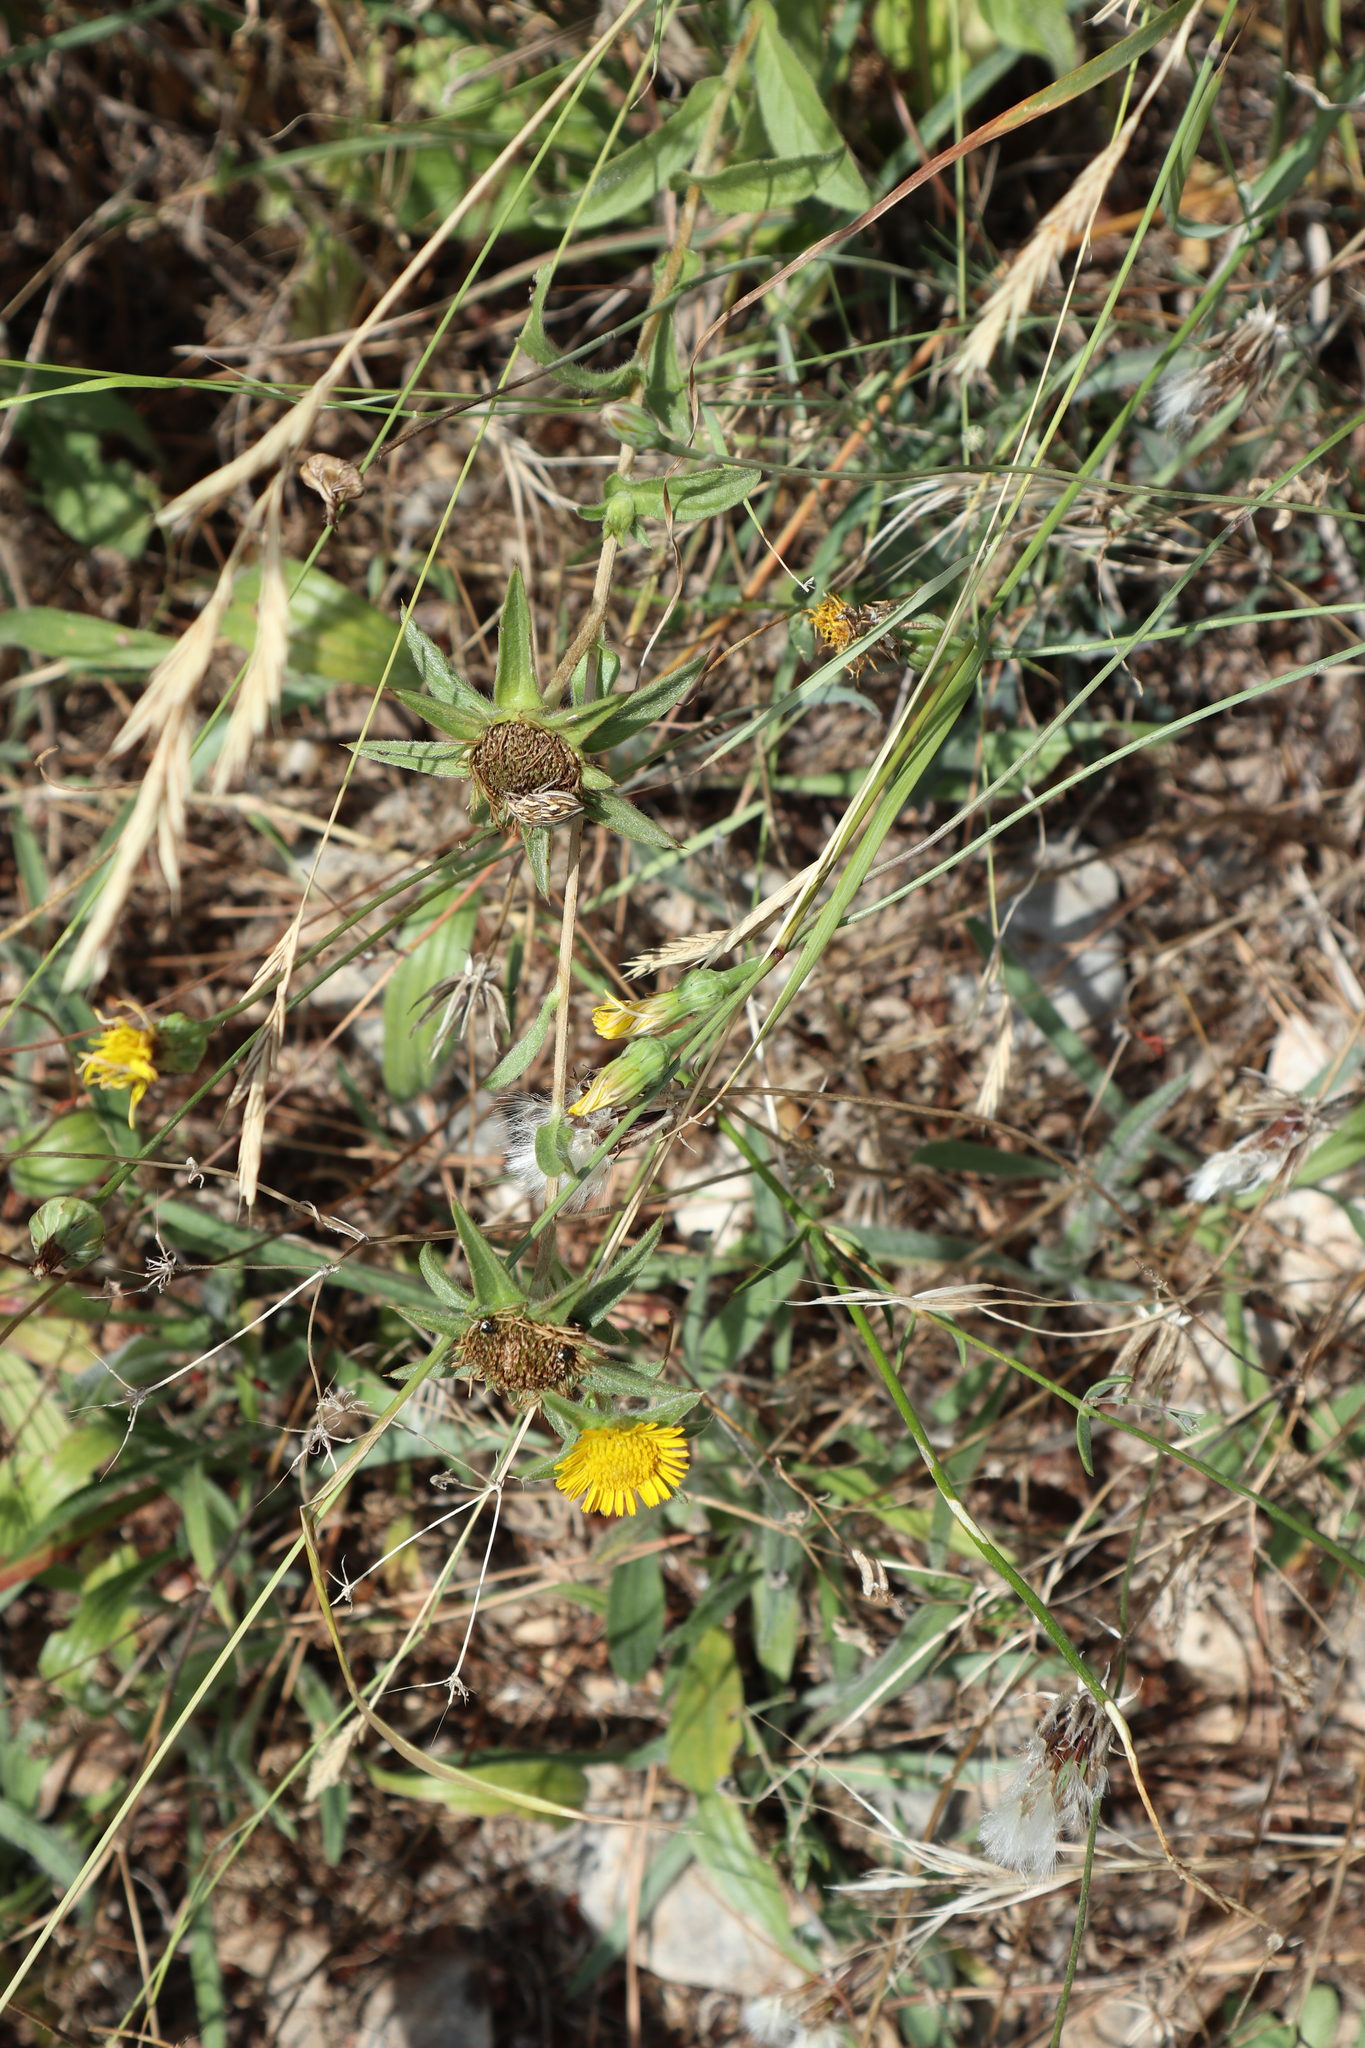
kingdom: Plantae
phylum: Tracheophyta
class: Magnoliopsida
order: Asterales
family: Asteraceae
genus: Pallenis
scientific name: Pallenis spinosa
